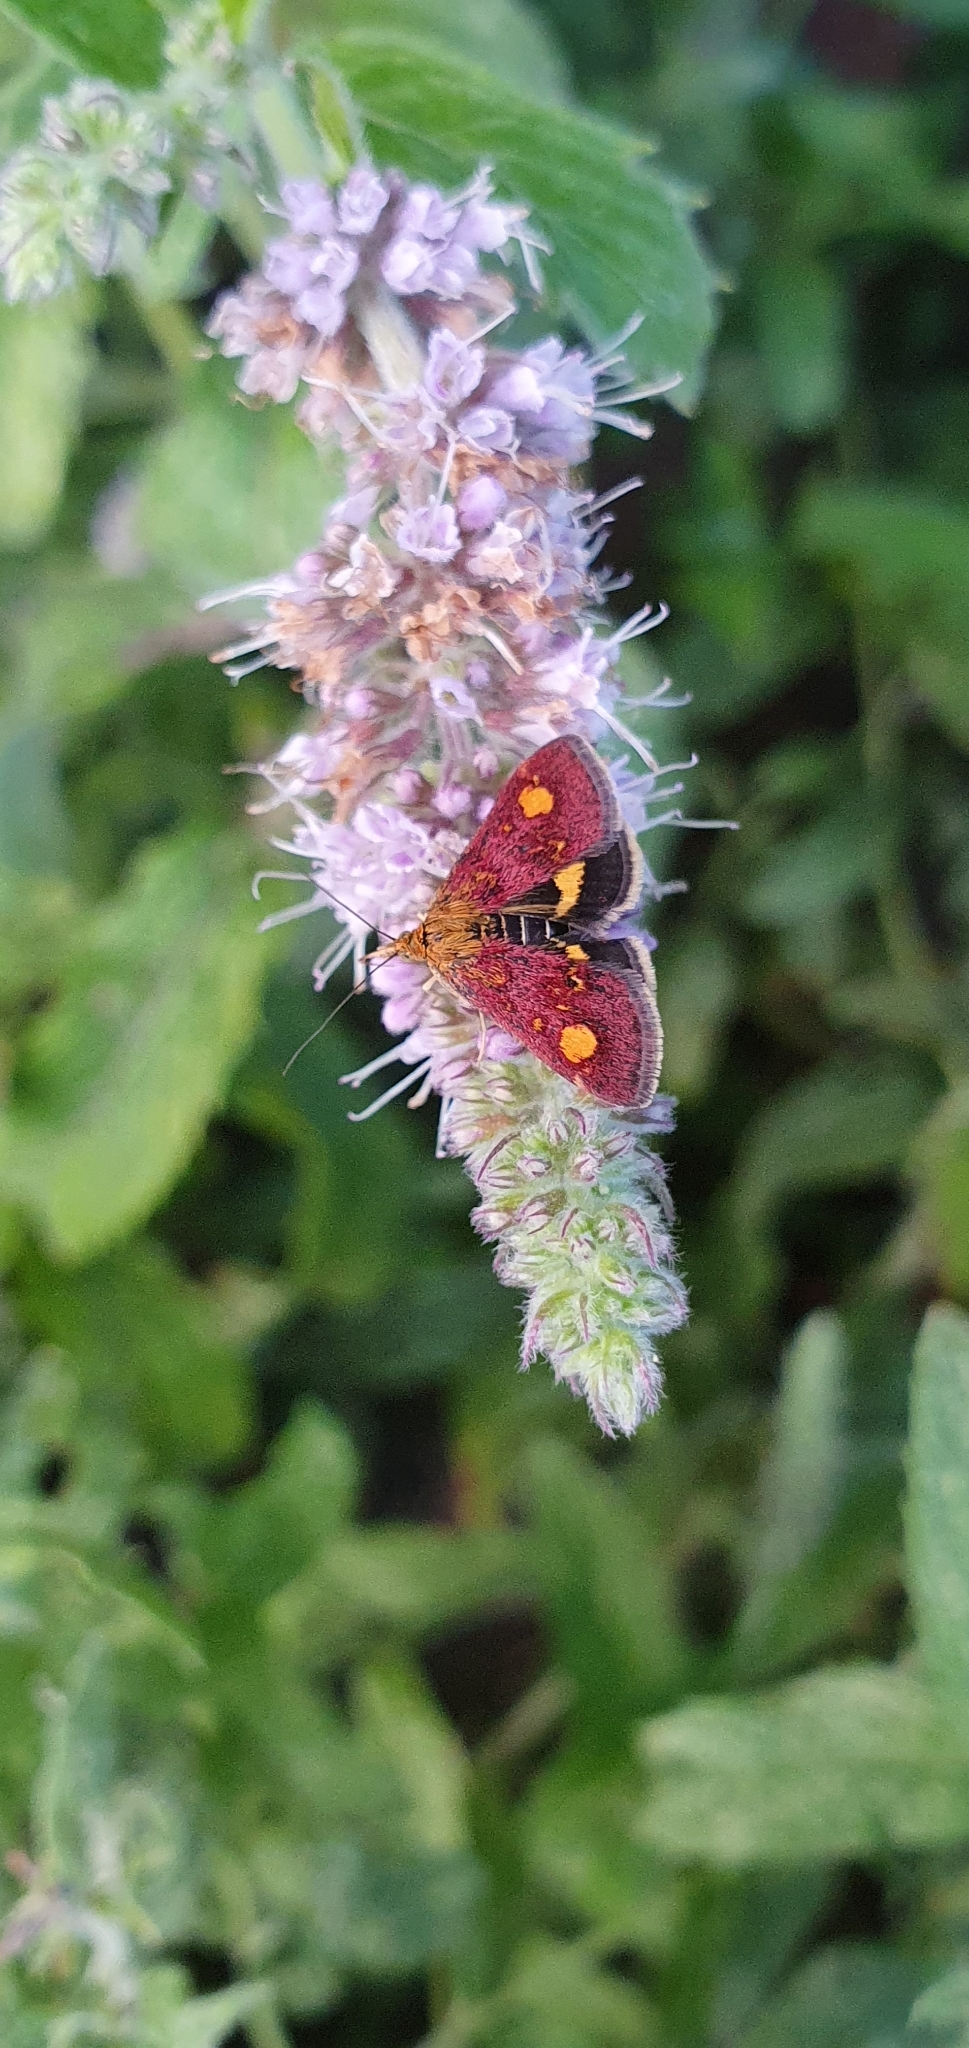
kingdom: Animalia
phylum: Arthropoda
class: Insecta
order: Lepidoptera
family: Crambidae
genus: Pyrausta
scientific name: Pyrausta aurata
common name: Small purple & gold
